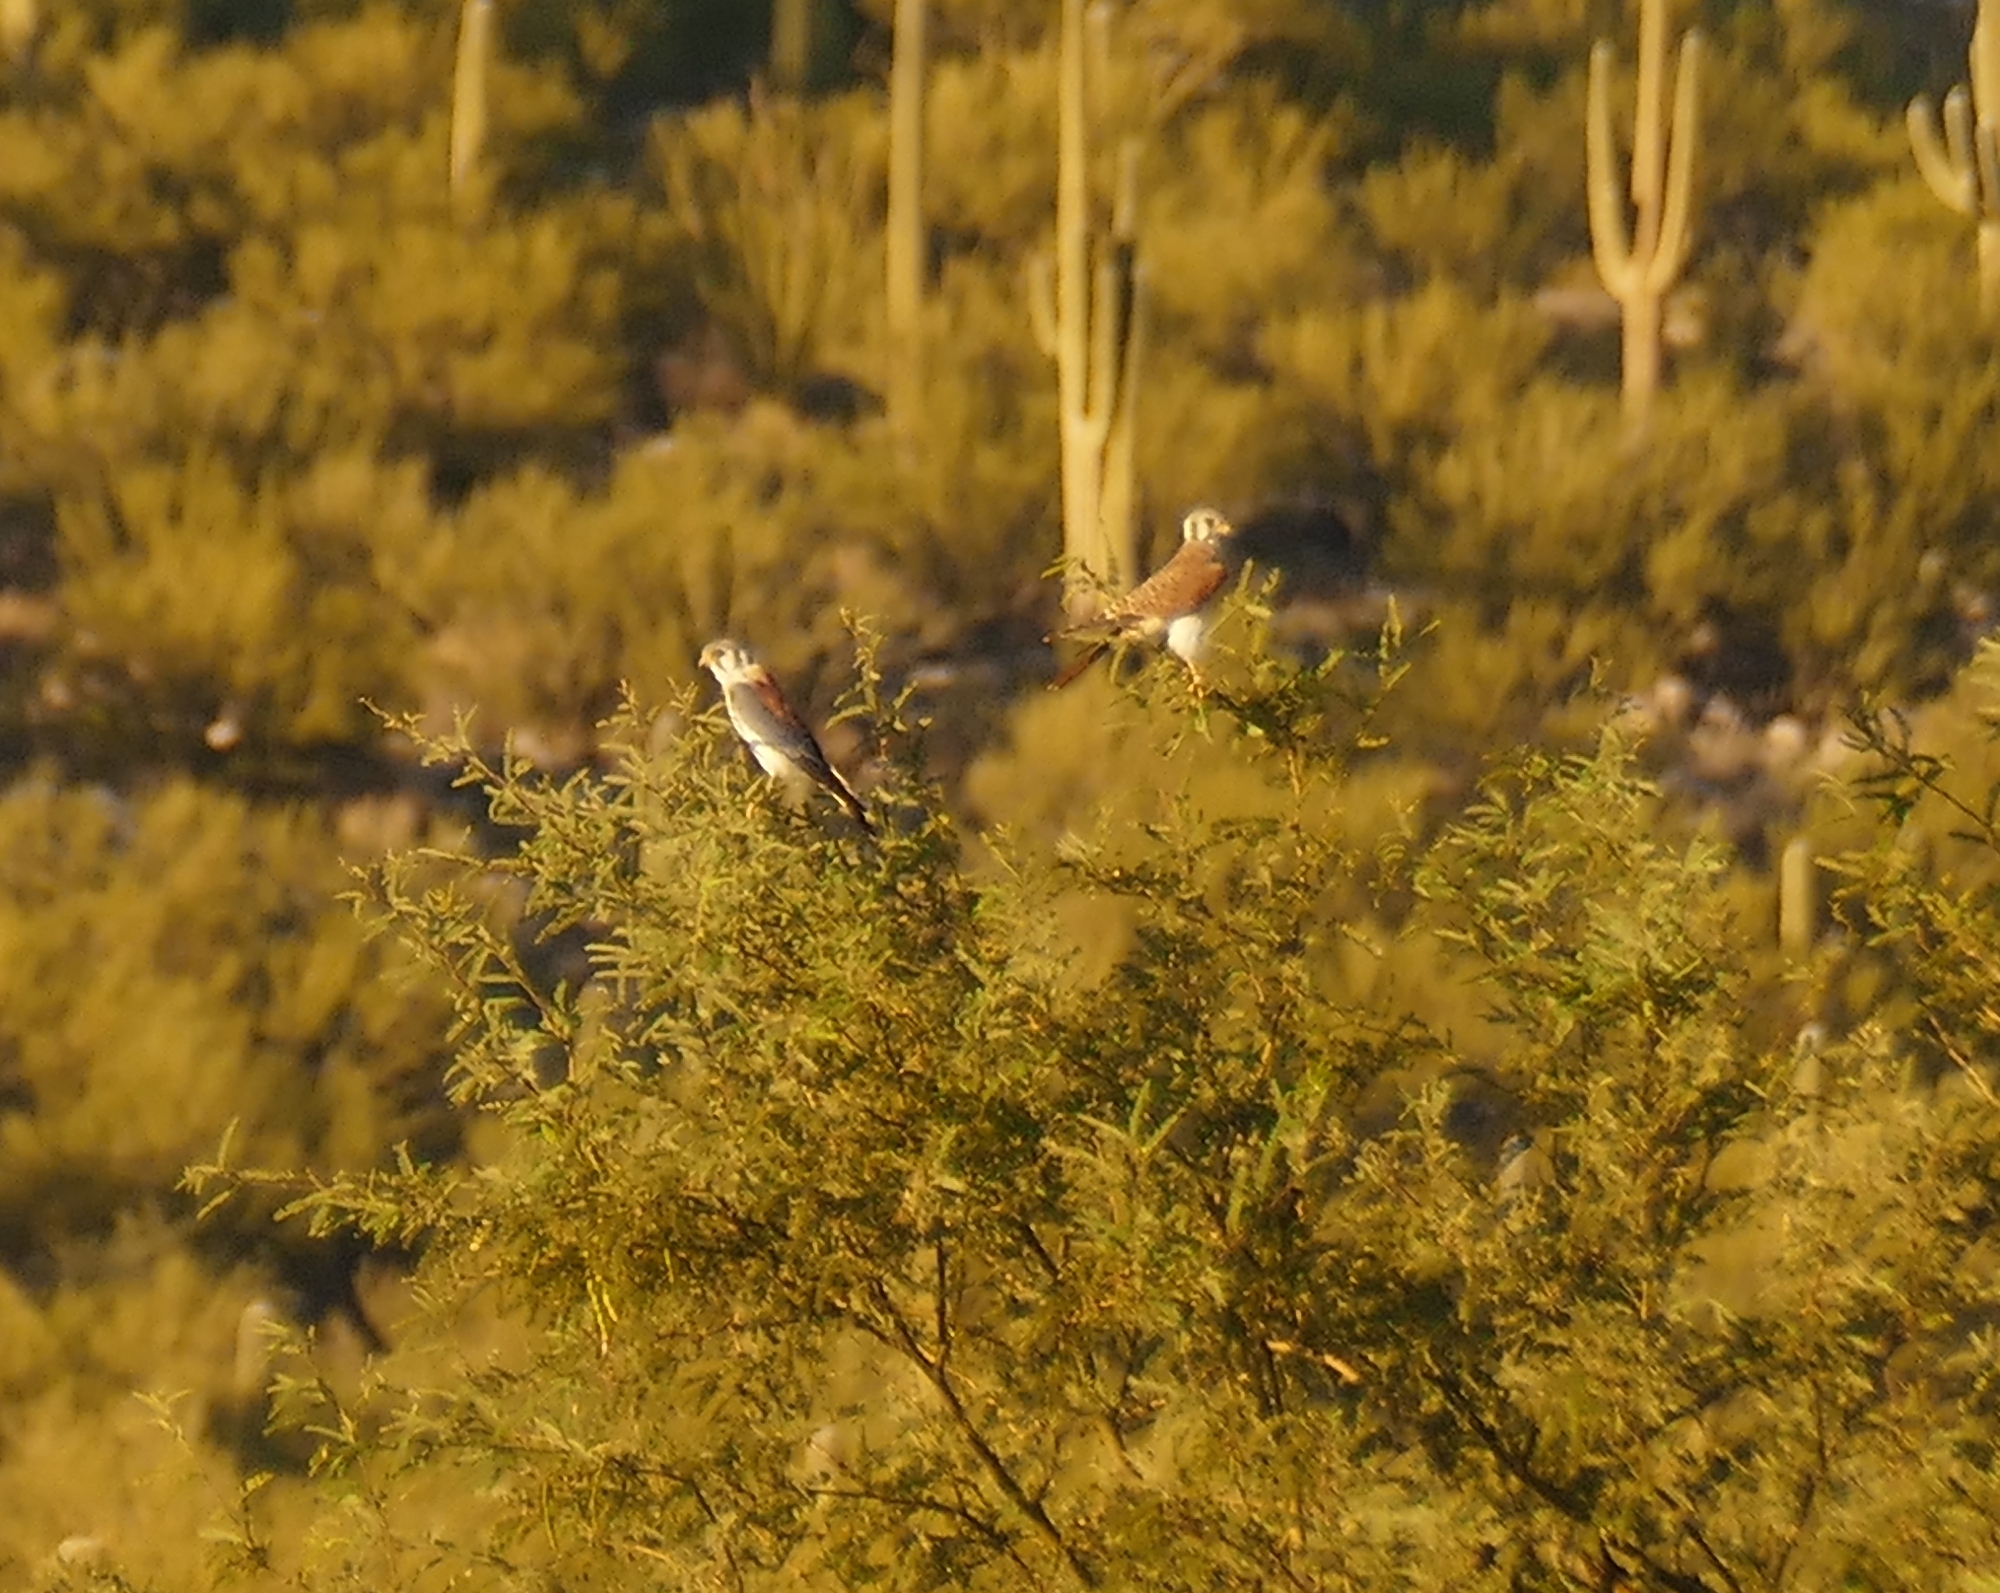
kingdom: Animalia
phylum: Chordata
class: Aves
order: Falconiformes
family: Falconidae
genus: Falco
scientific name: Falco sparverius
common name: American kestrel
